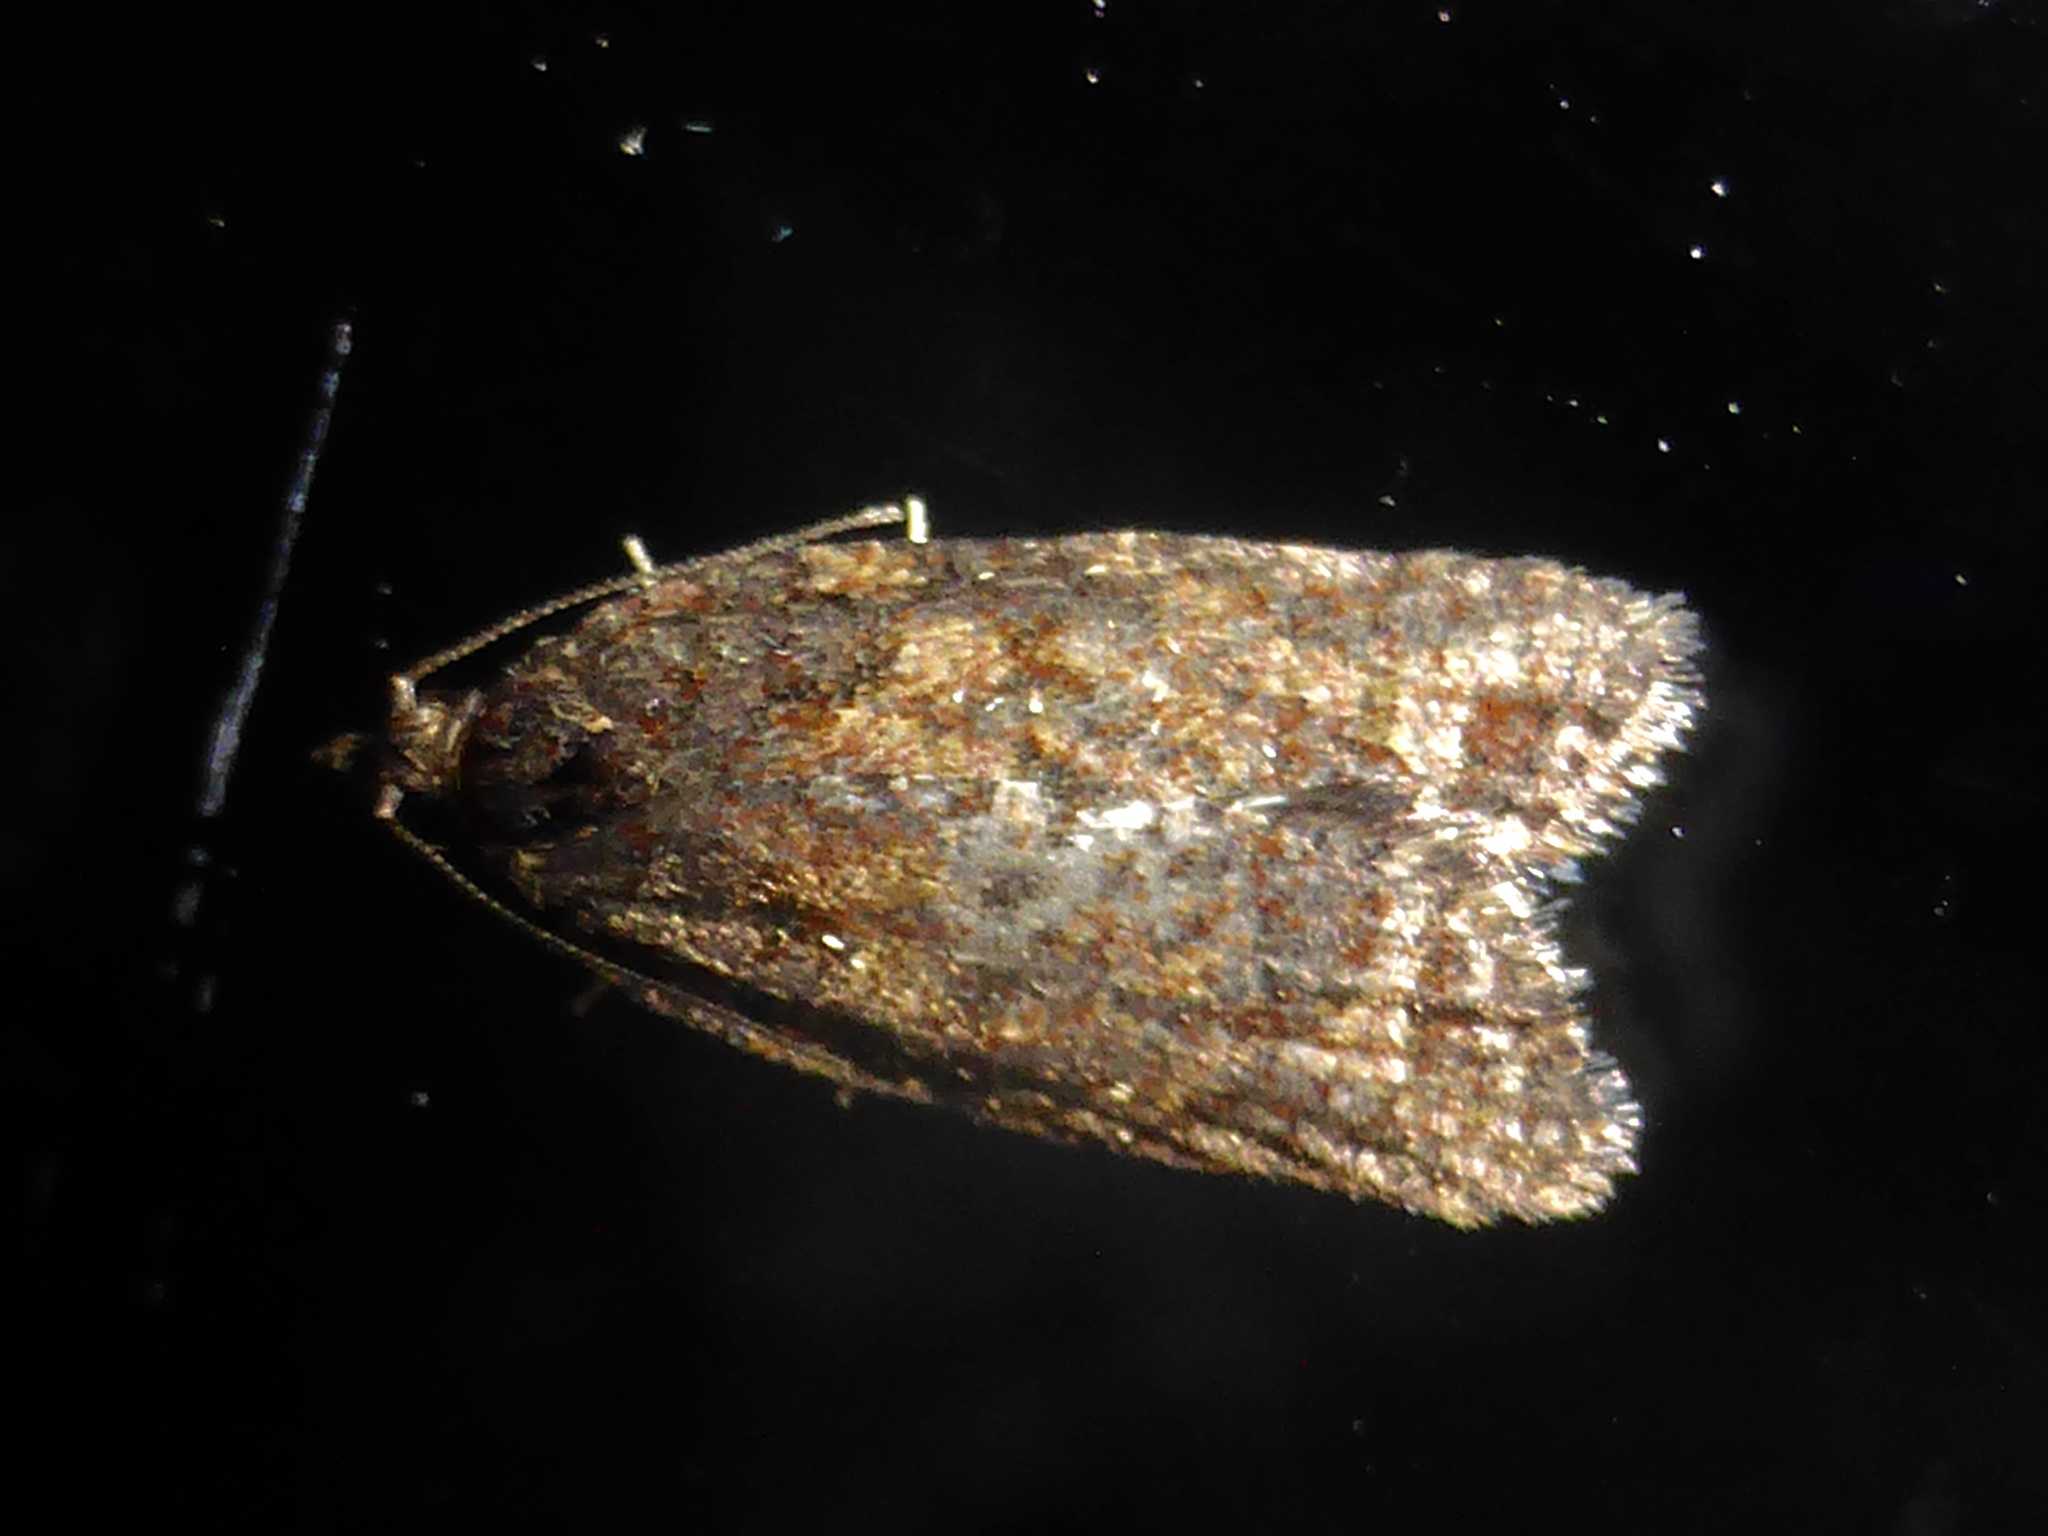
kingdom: Animalia
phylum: Arthropoda
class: Insecta
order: Lepidoptera
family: Tortricidae
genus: Capua
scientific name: Capua intractana
